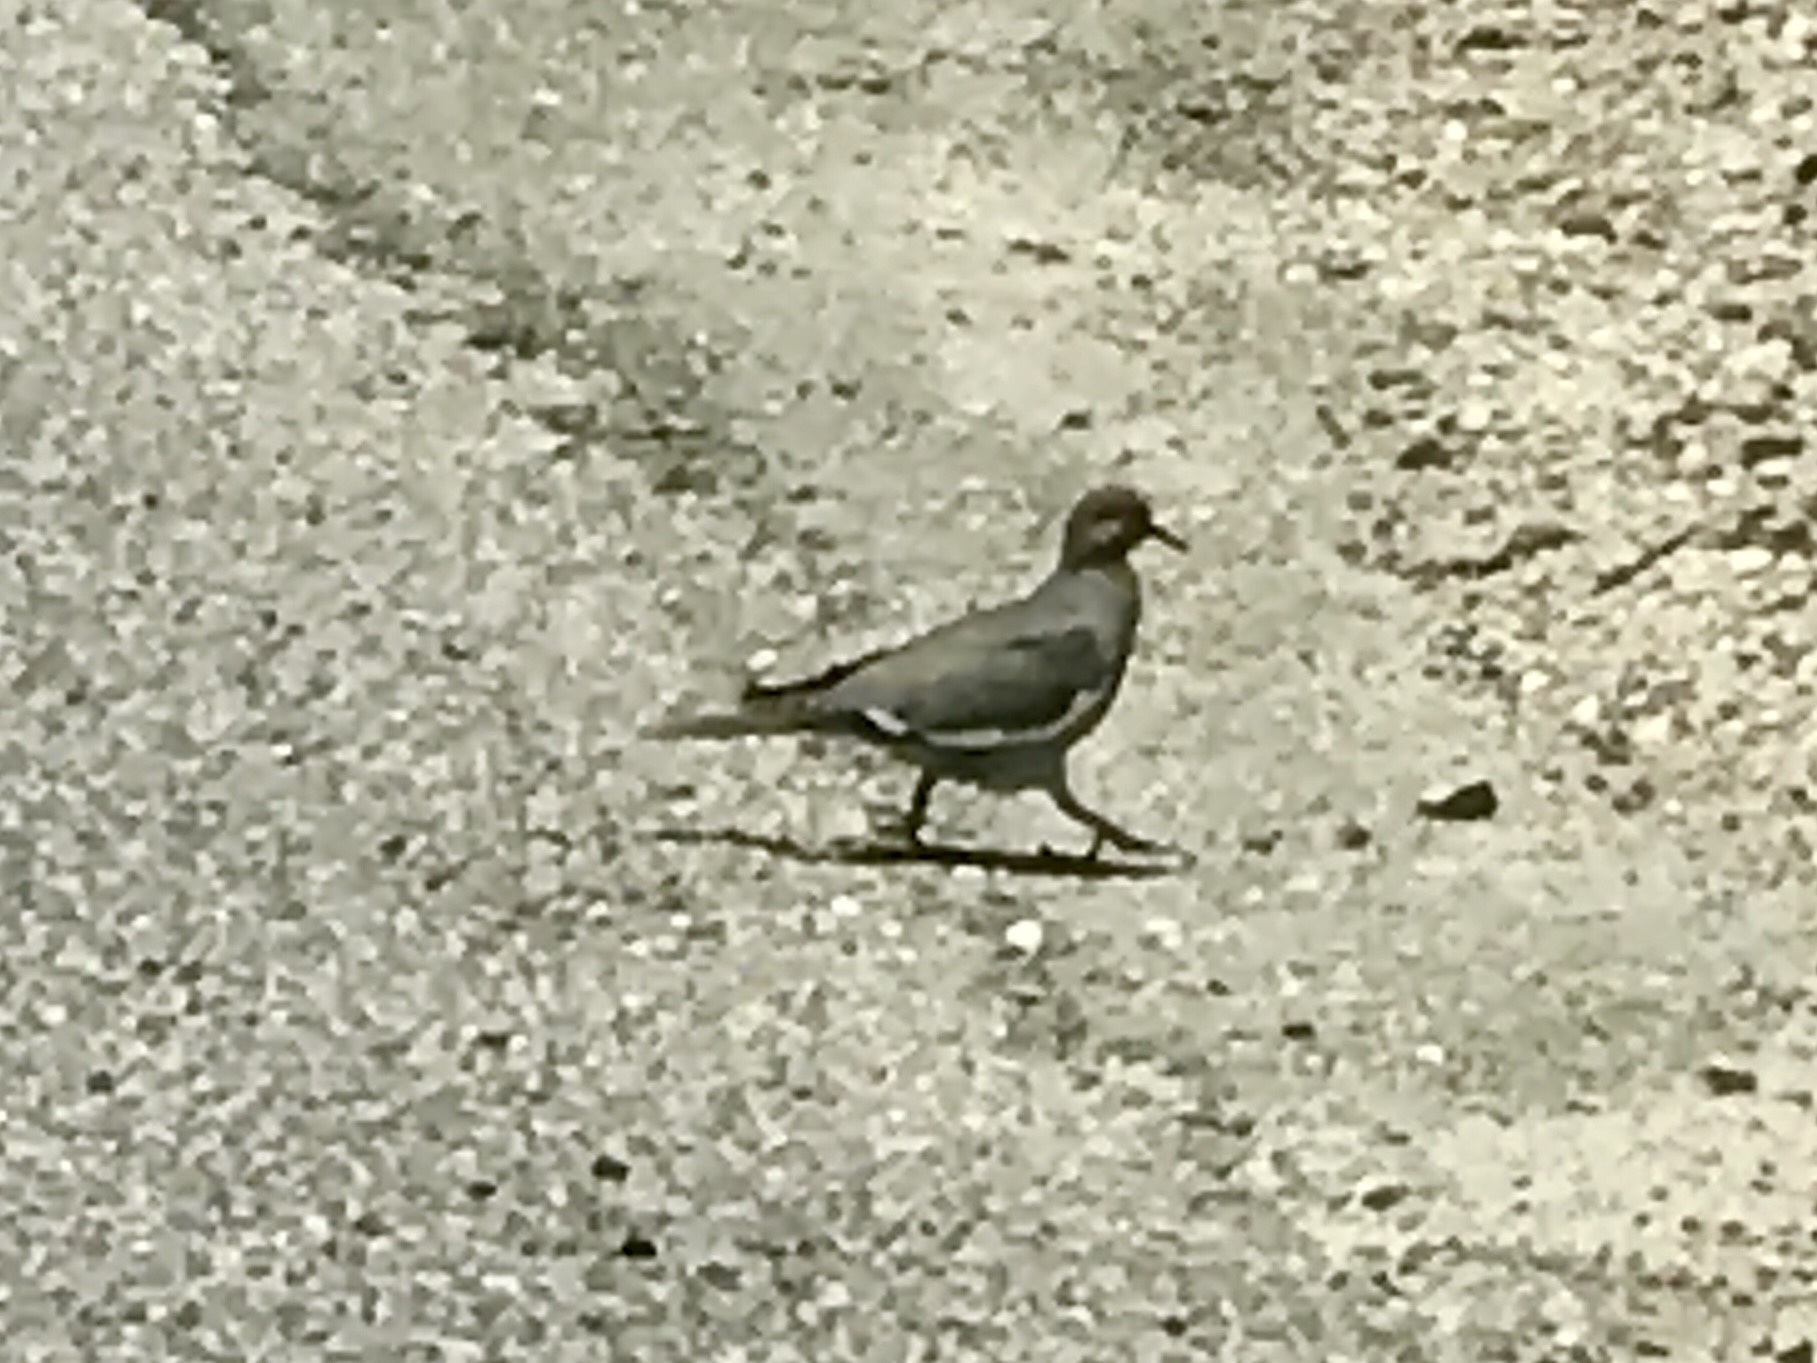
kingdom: Animalia
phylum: Chordata
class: Aves
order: Columbiformes
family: Columbidae
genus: Zenaida
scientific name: Zenaida asiatica
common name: White-winged dove
